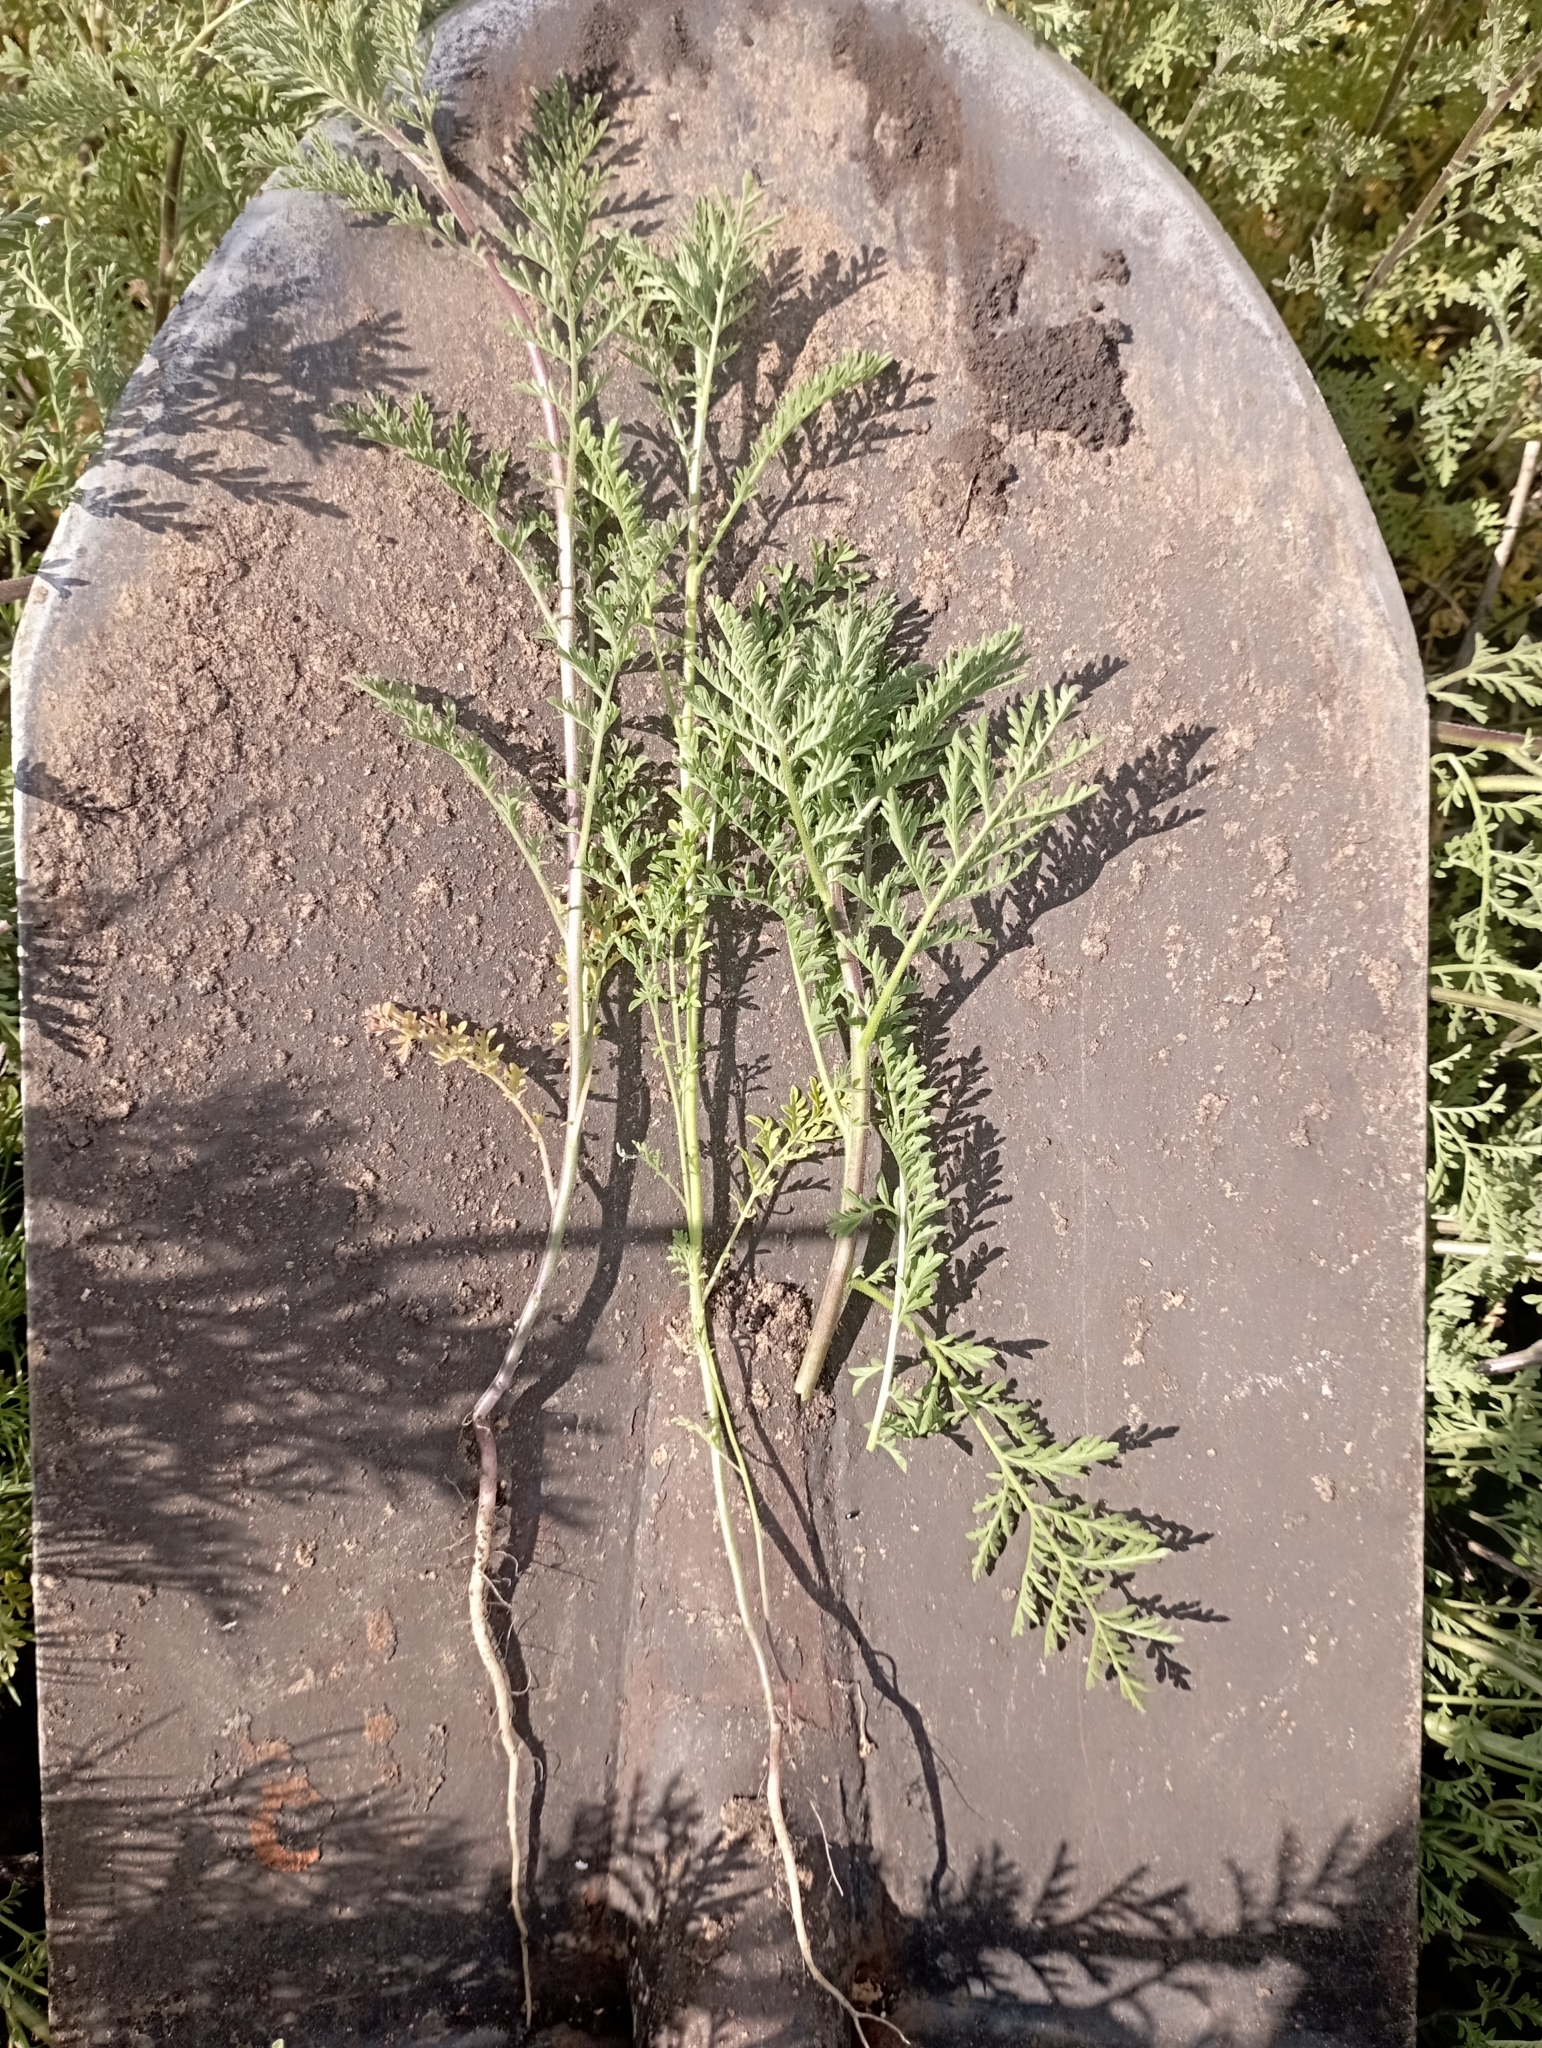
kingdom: Plantae
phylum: Tracheophyta
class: Magnoliopsida
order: Brassicales
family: Brassicaceae
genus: Descurainia
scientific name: Descurainia sophia
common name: Flixweed
